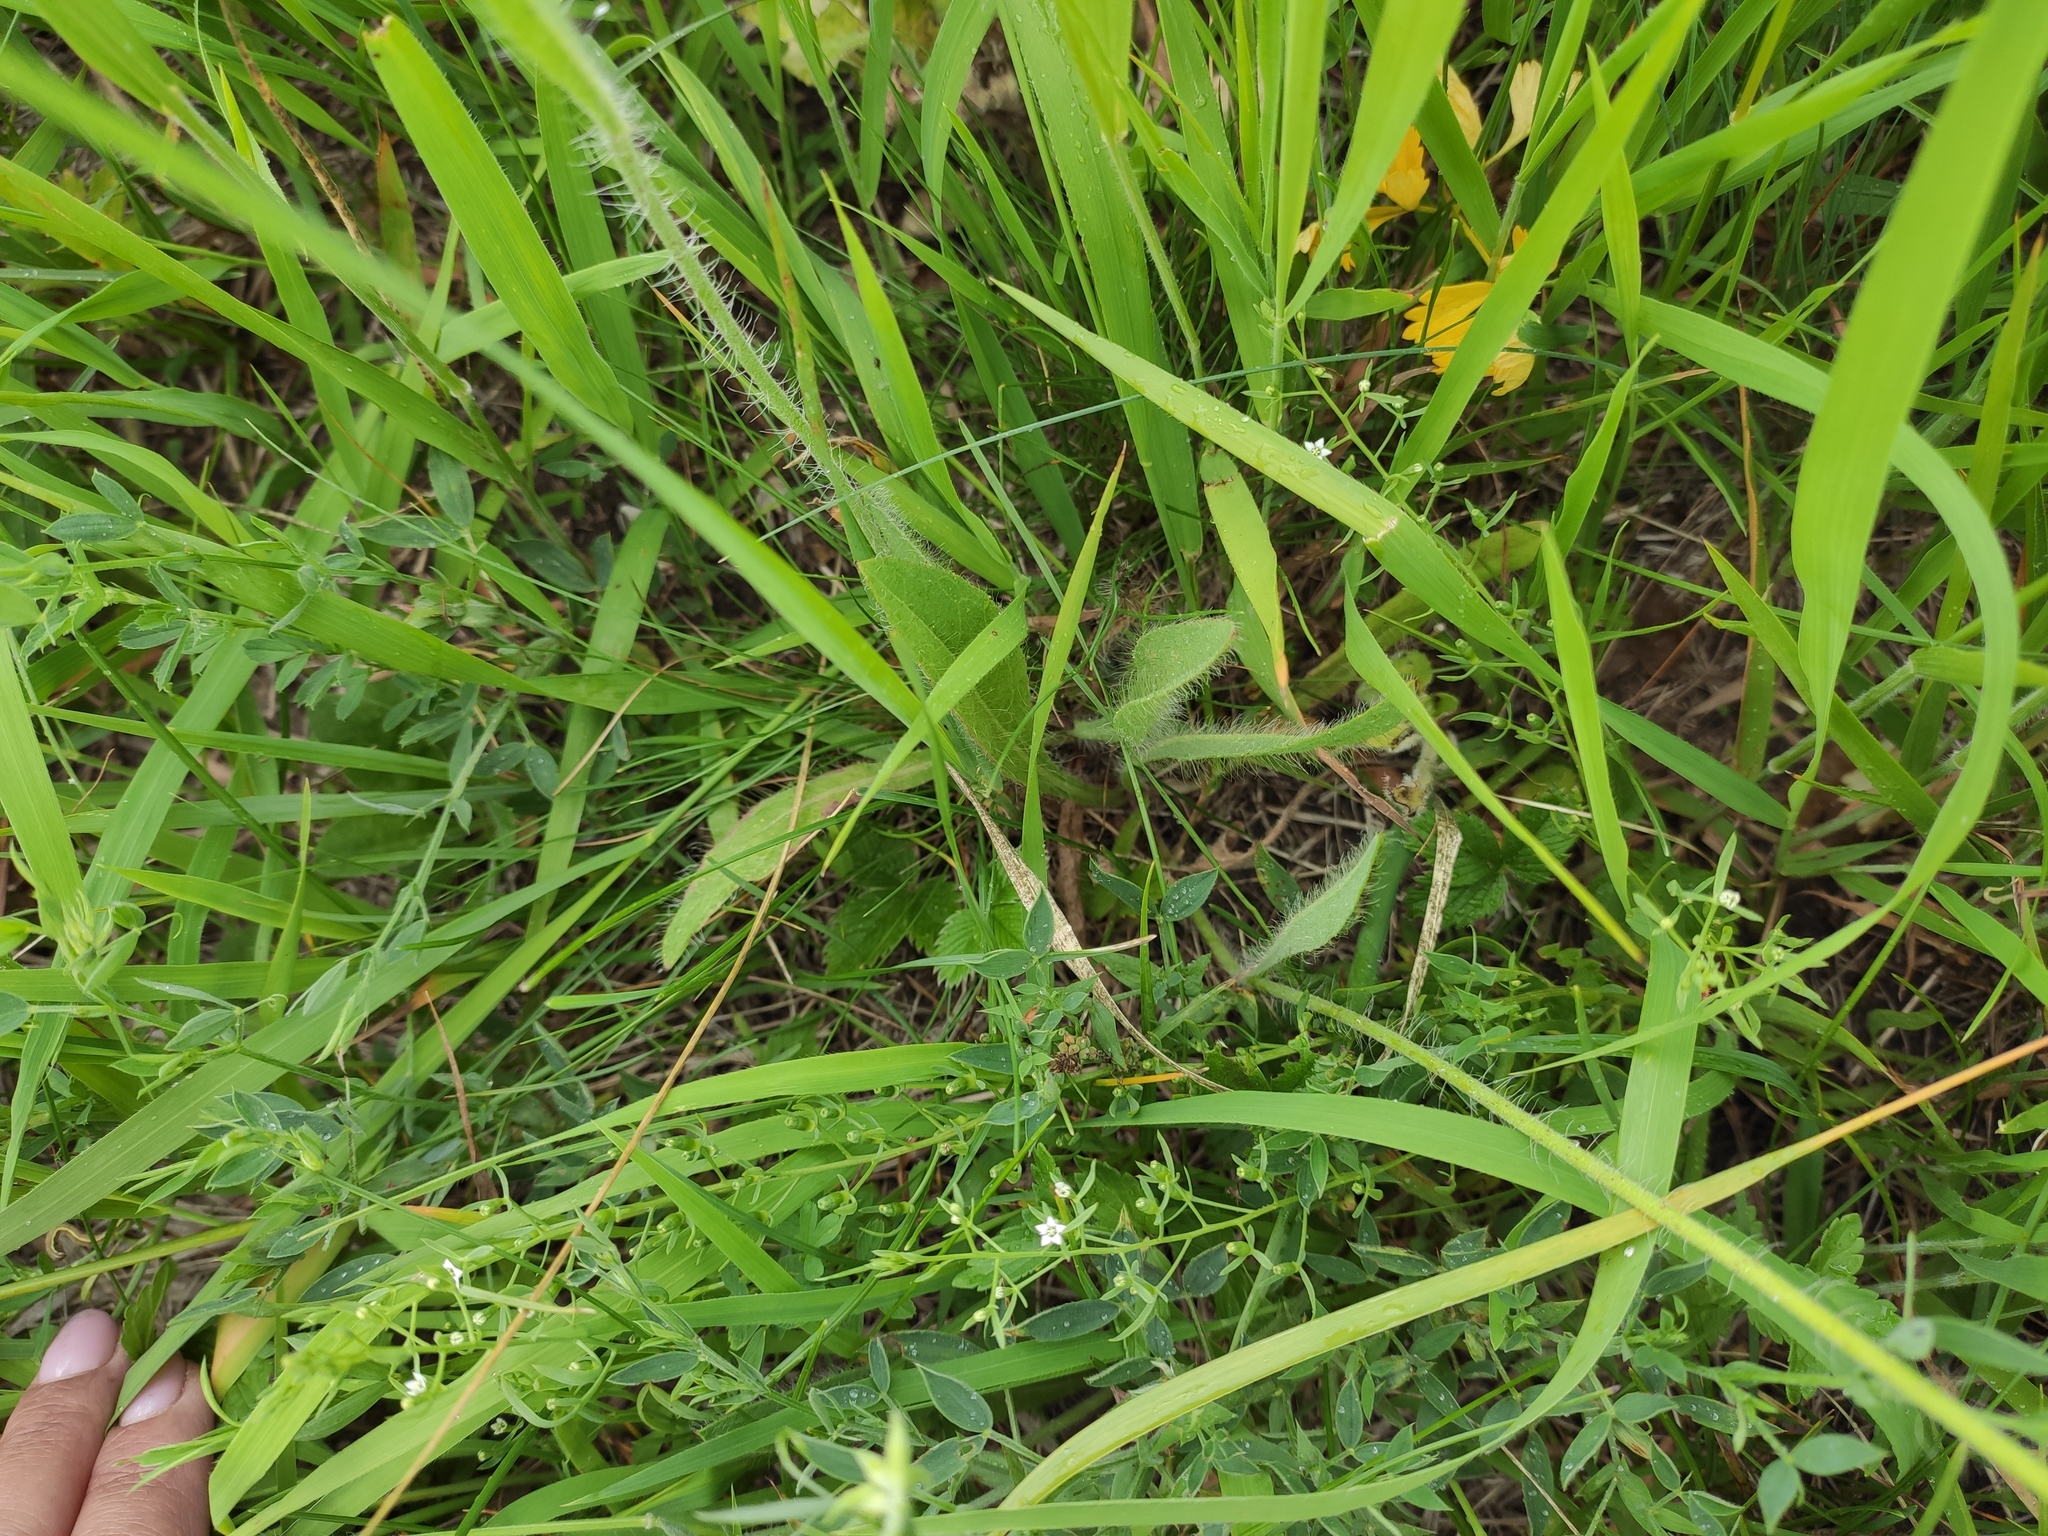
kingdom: Plantae
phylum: Tracheophyta
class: Magnoliopsida
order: Asterales
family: Asteraceae
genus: Pilosella
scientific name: Pilosella
